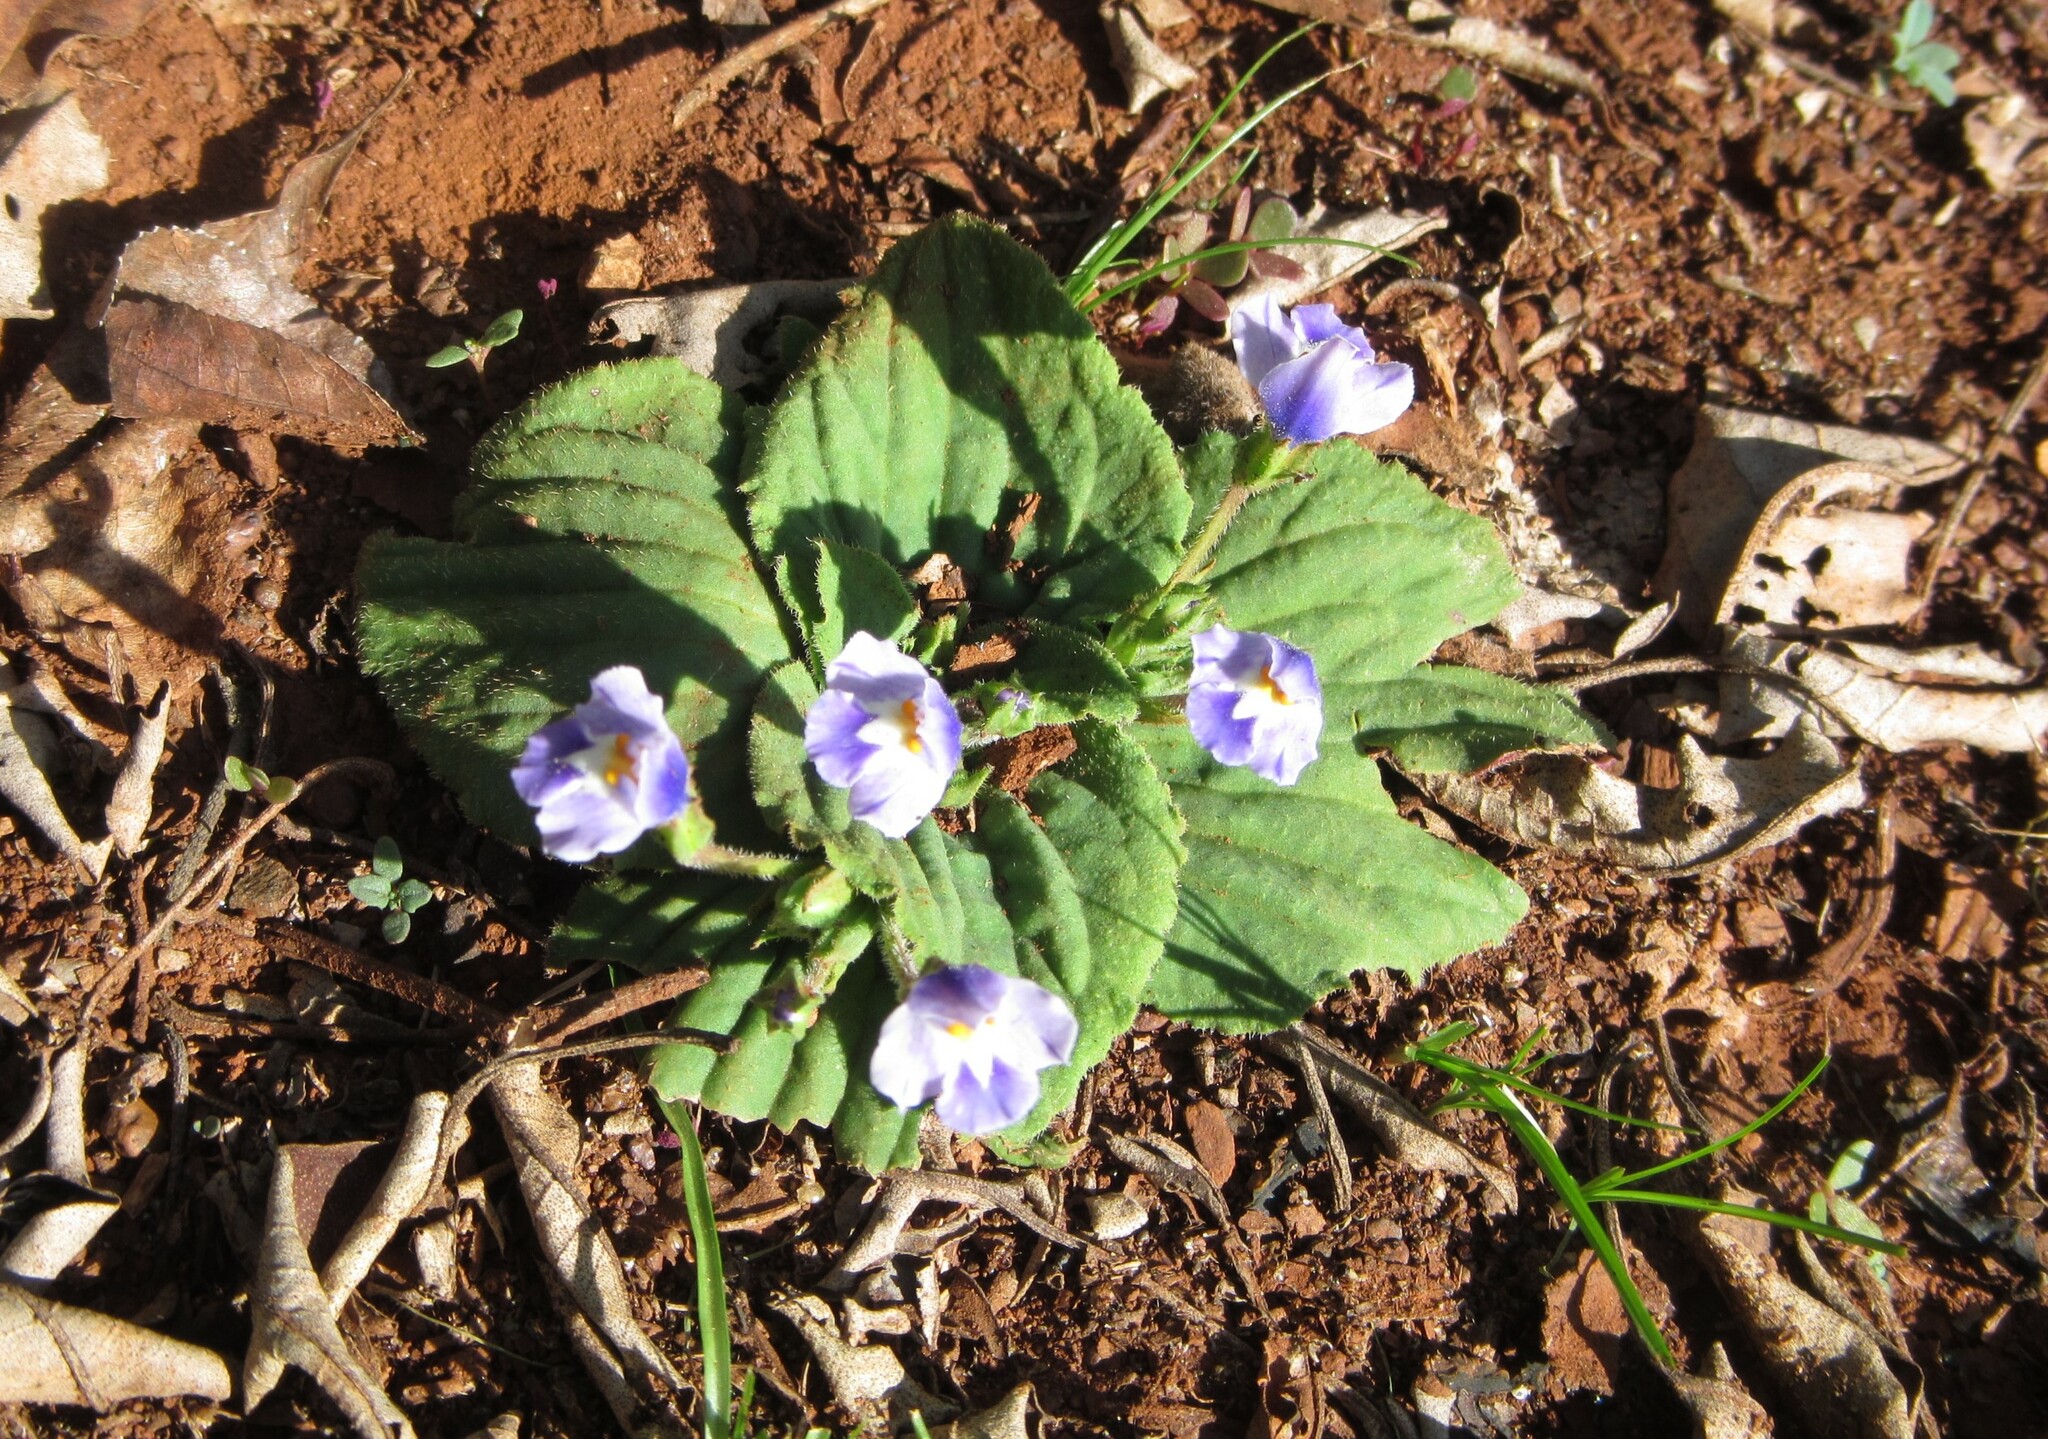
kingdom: Plantae
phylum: Tracheophyta
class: Magnoliopsida
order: Lamiales
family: Linderniaceae
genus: Craterostigma
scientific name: Craterostigma plantagineum
